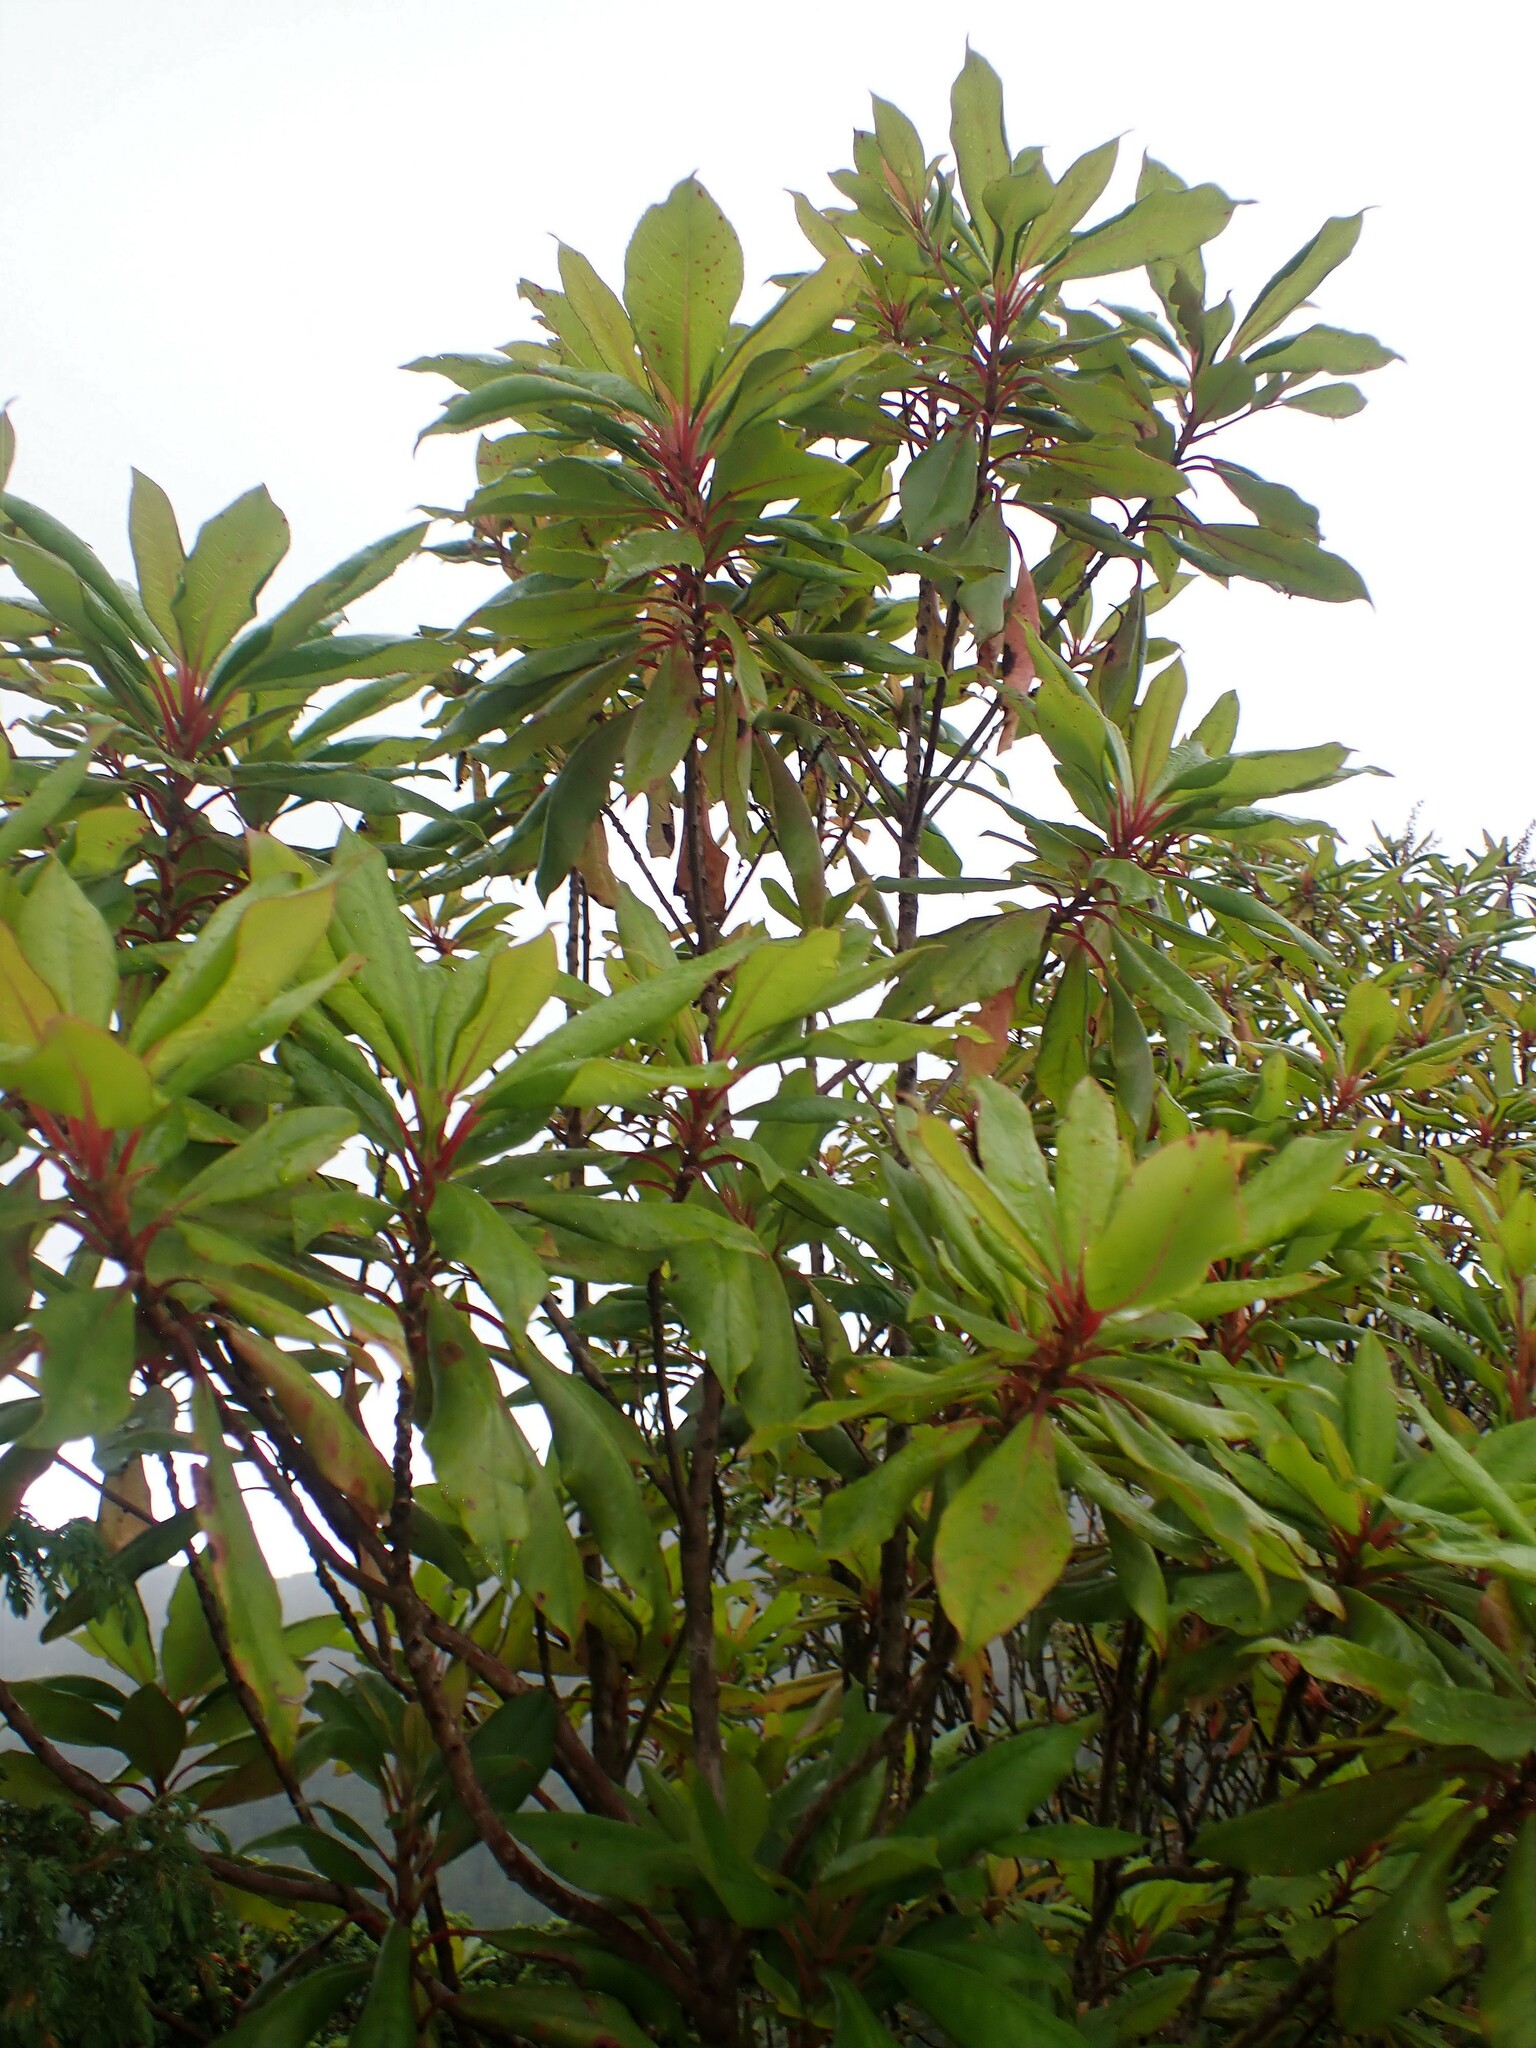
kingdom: Plantae
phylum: Tracheophyta
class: Magnoliopsida
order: Ericales
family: Clethraceae
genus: Clethra
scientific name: Clethra arborea
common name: Lily-of-the-valley-tree
